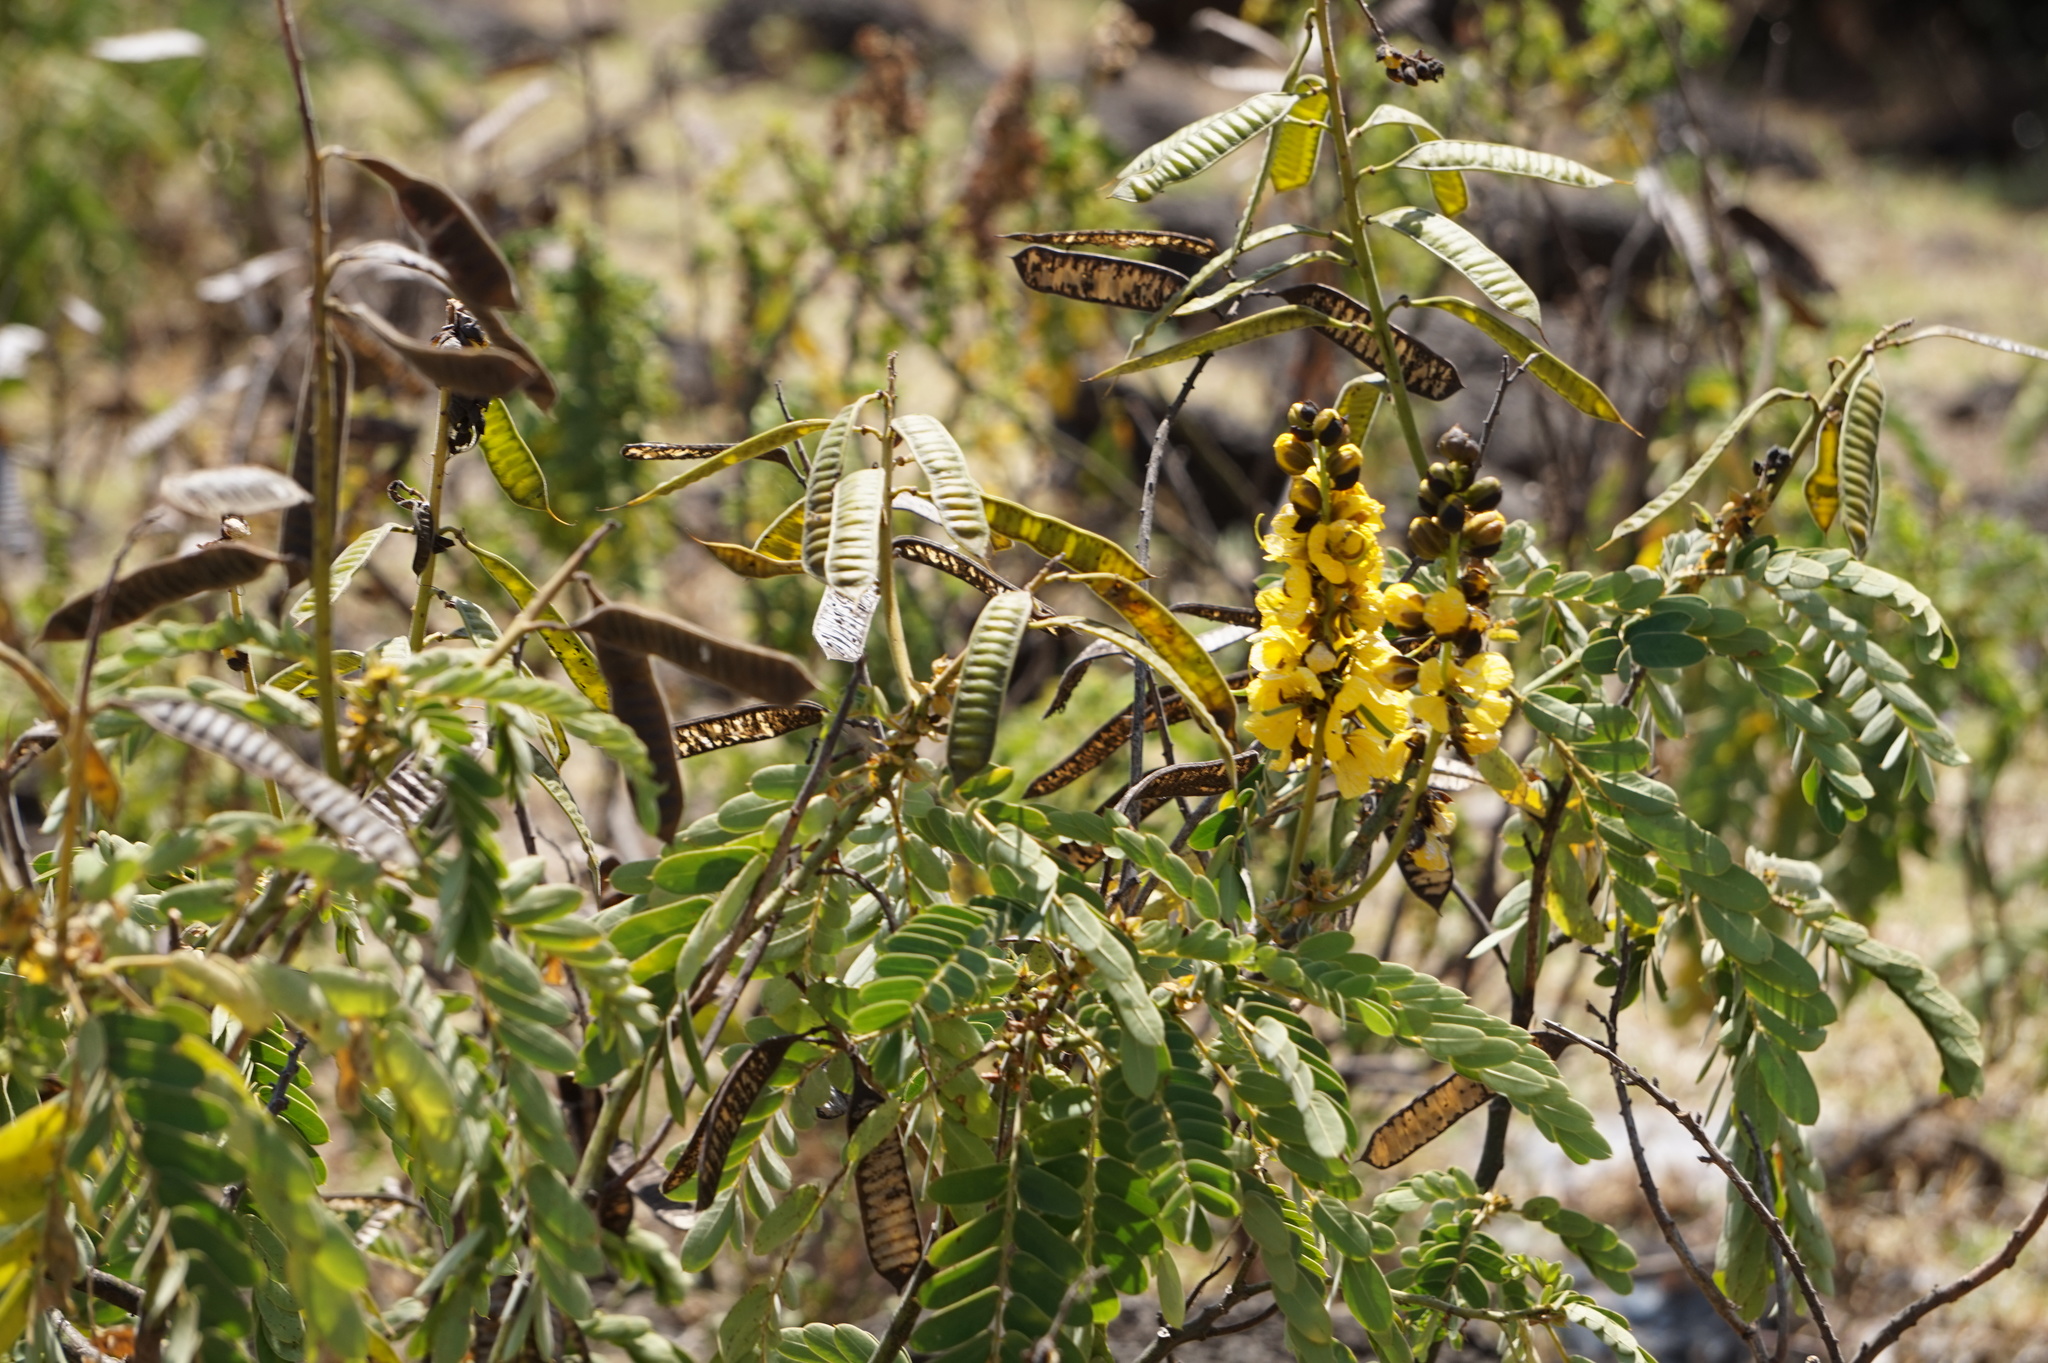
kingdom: Plantae
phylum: Tracheophyta
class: Magnoliopsida
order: Fabales
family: Fabaceae
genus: Senna
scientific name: Senna didymobotrya
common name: African senna
